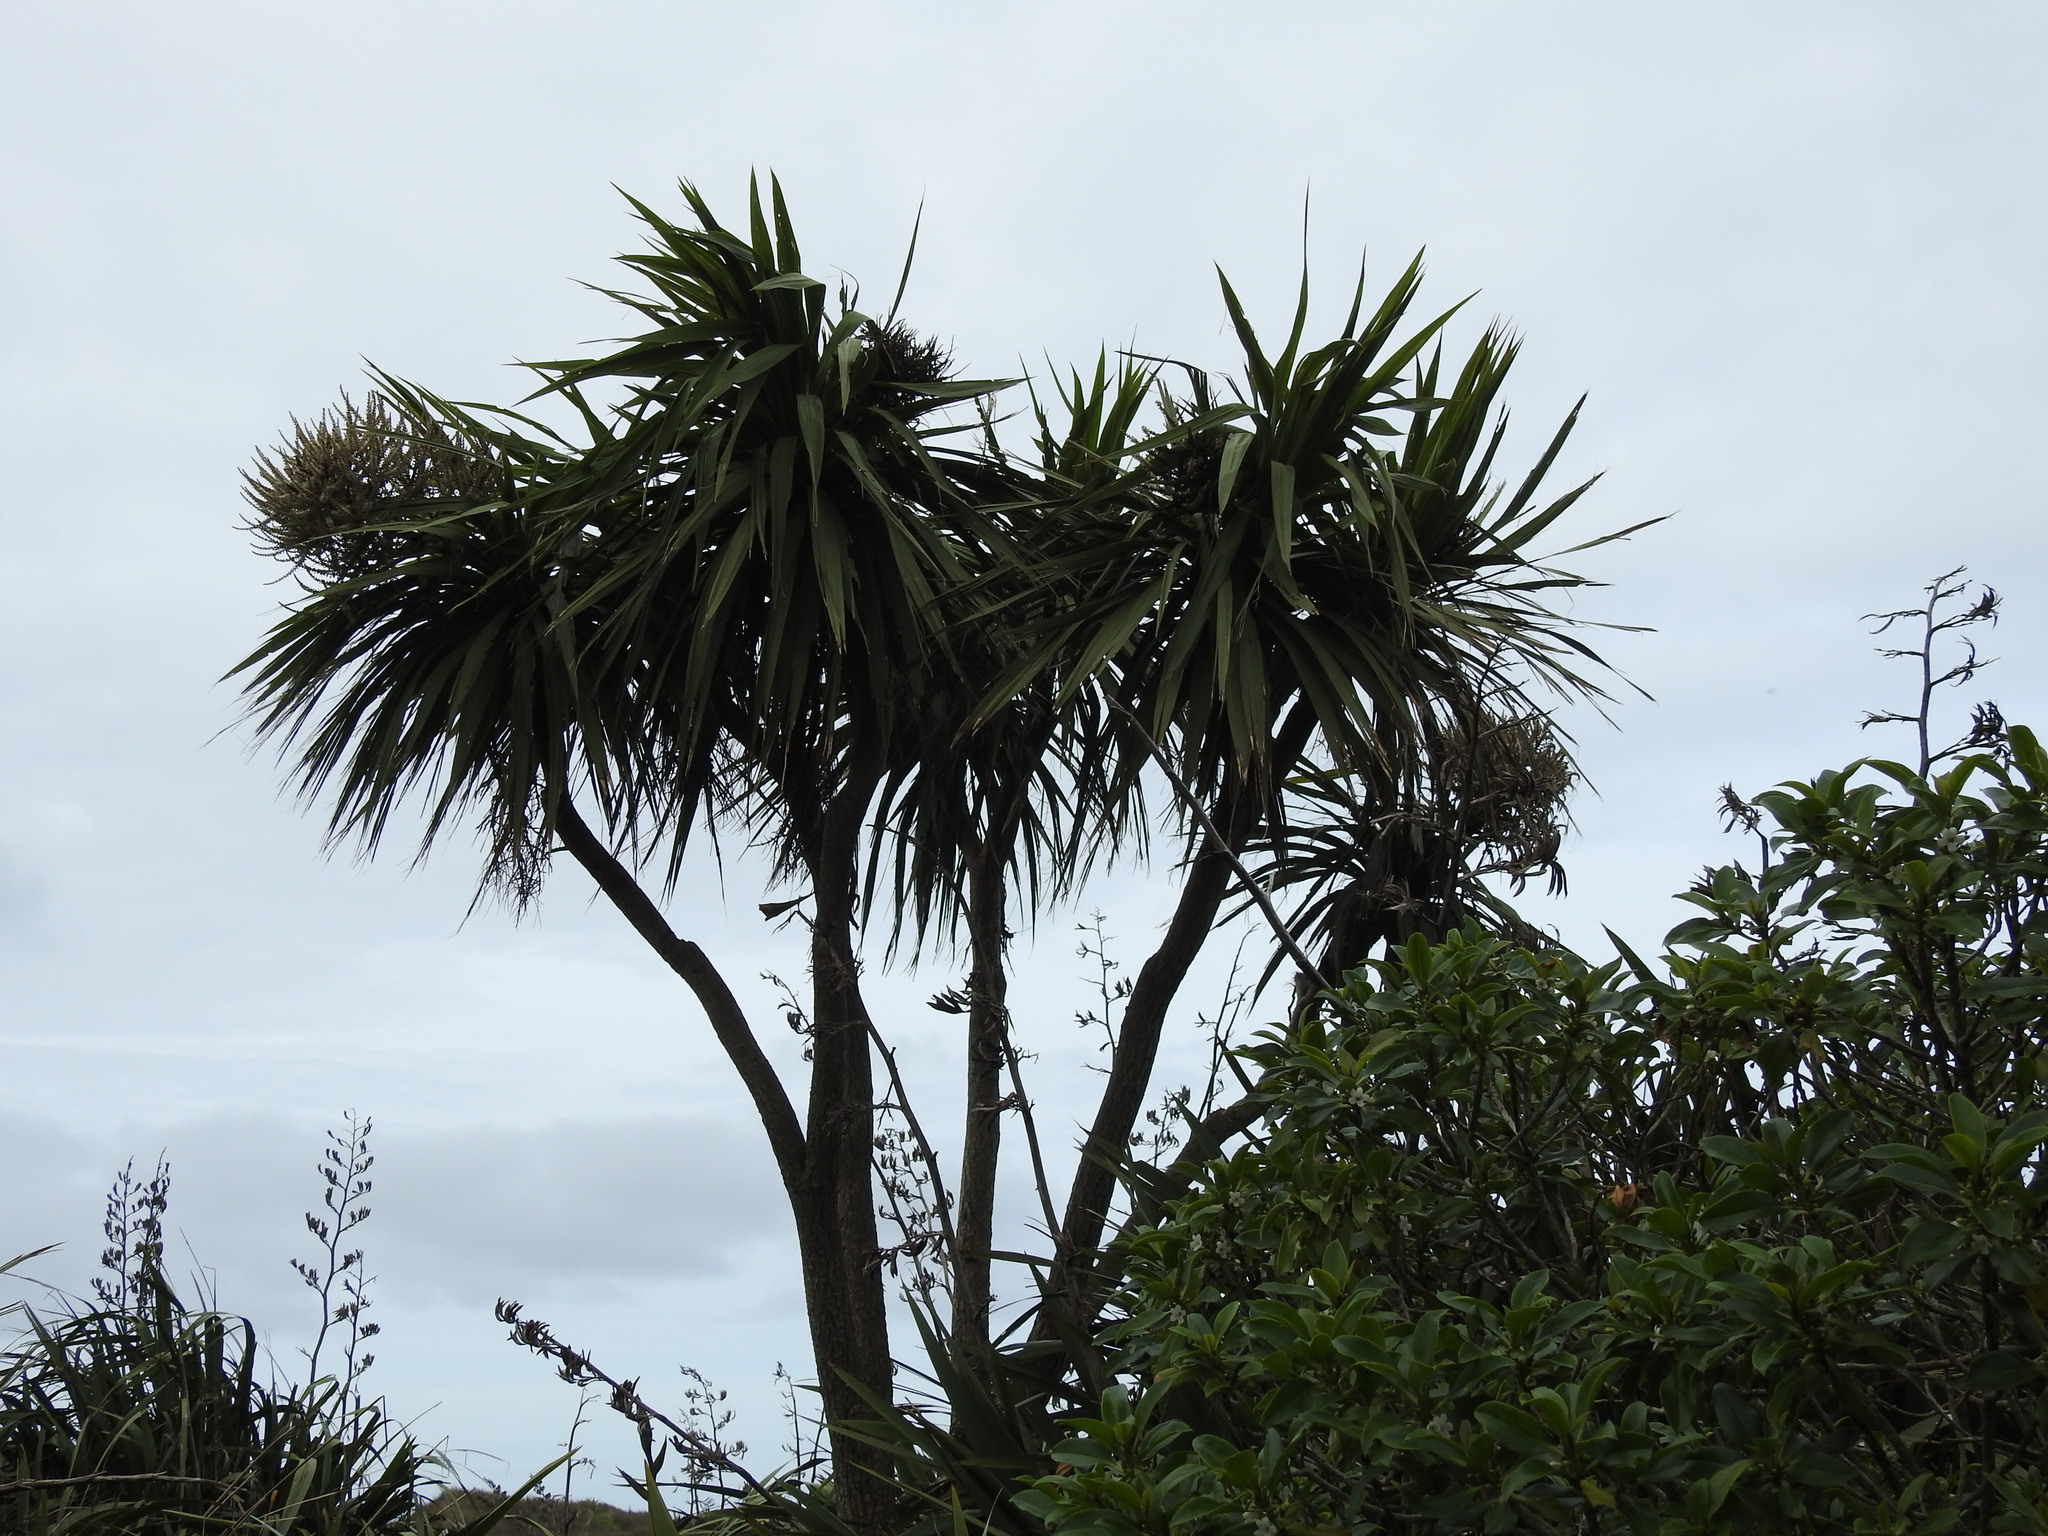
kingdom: Plantae
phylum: Tracheophyta
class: Liliopsida
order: Asparagales
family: Asparagaceae
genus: Cordyline
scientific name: Cordyline australis
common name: Cabbage-palm
